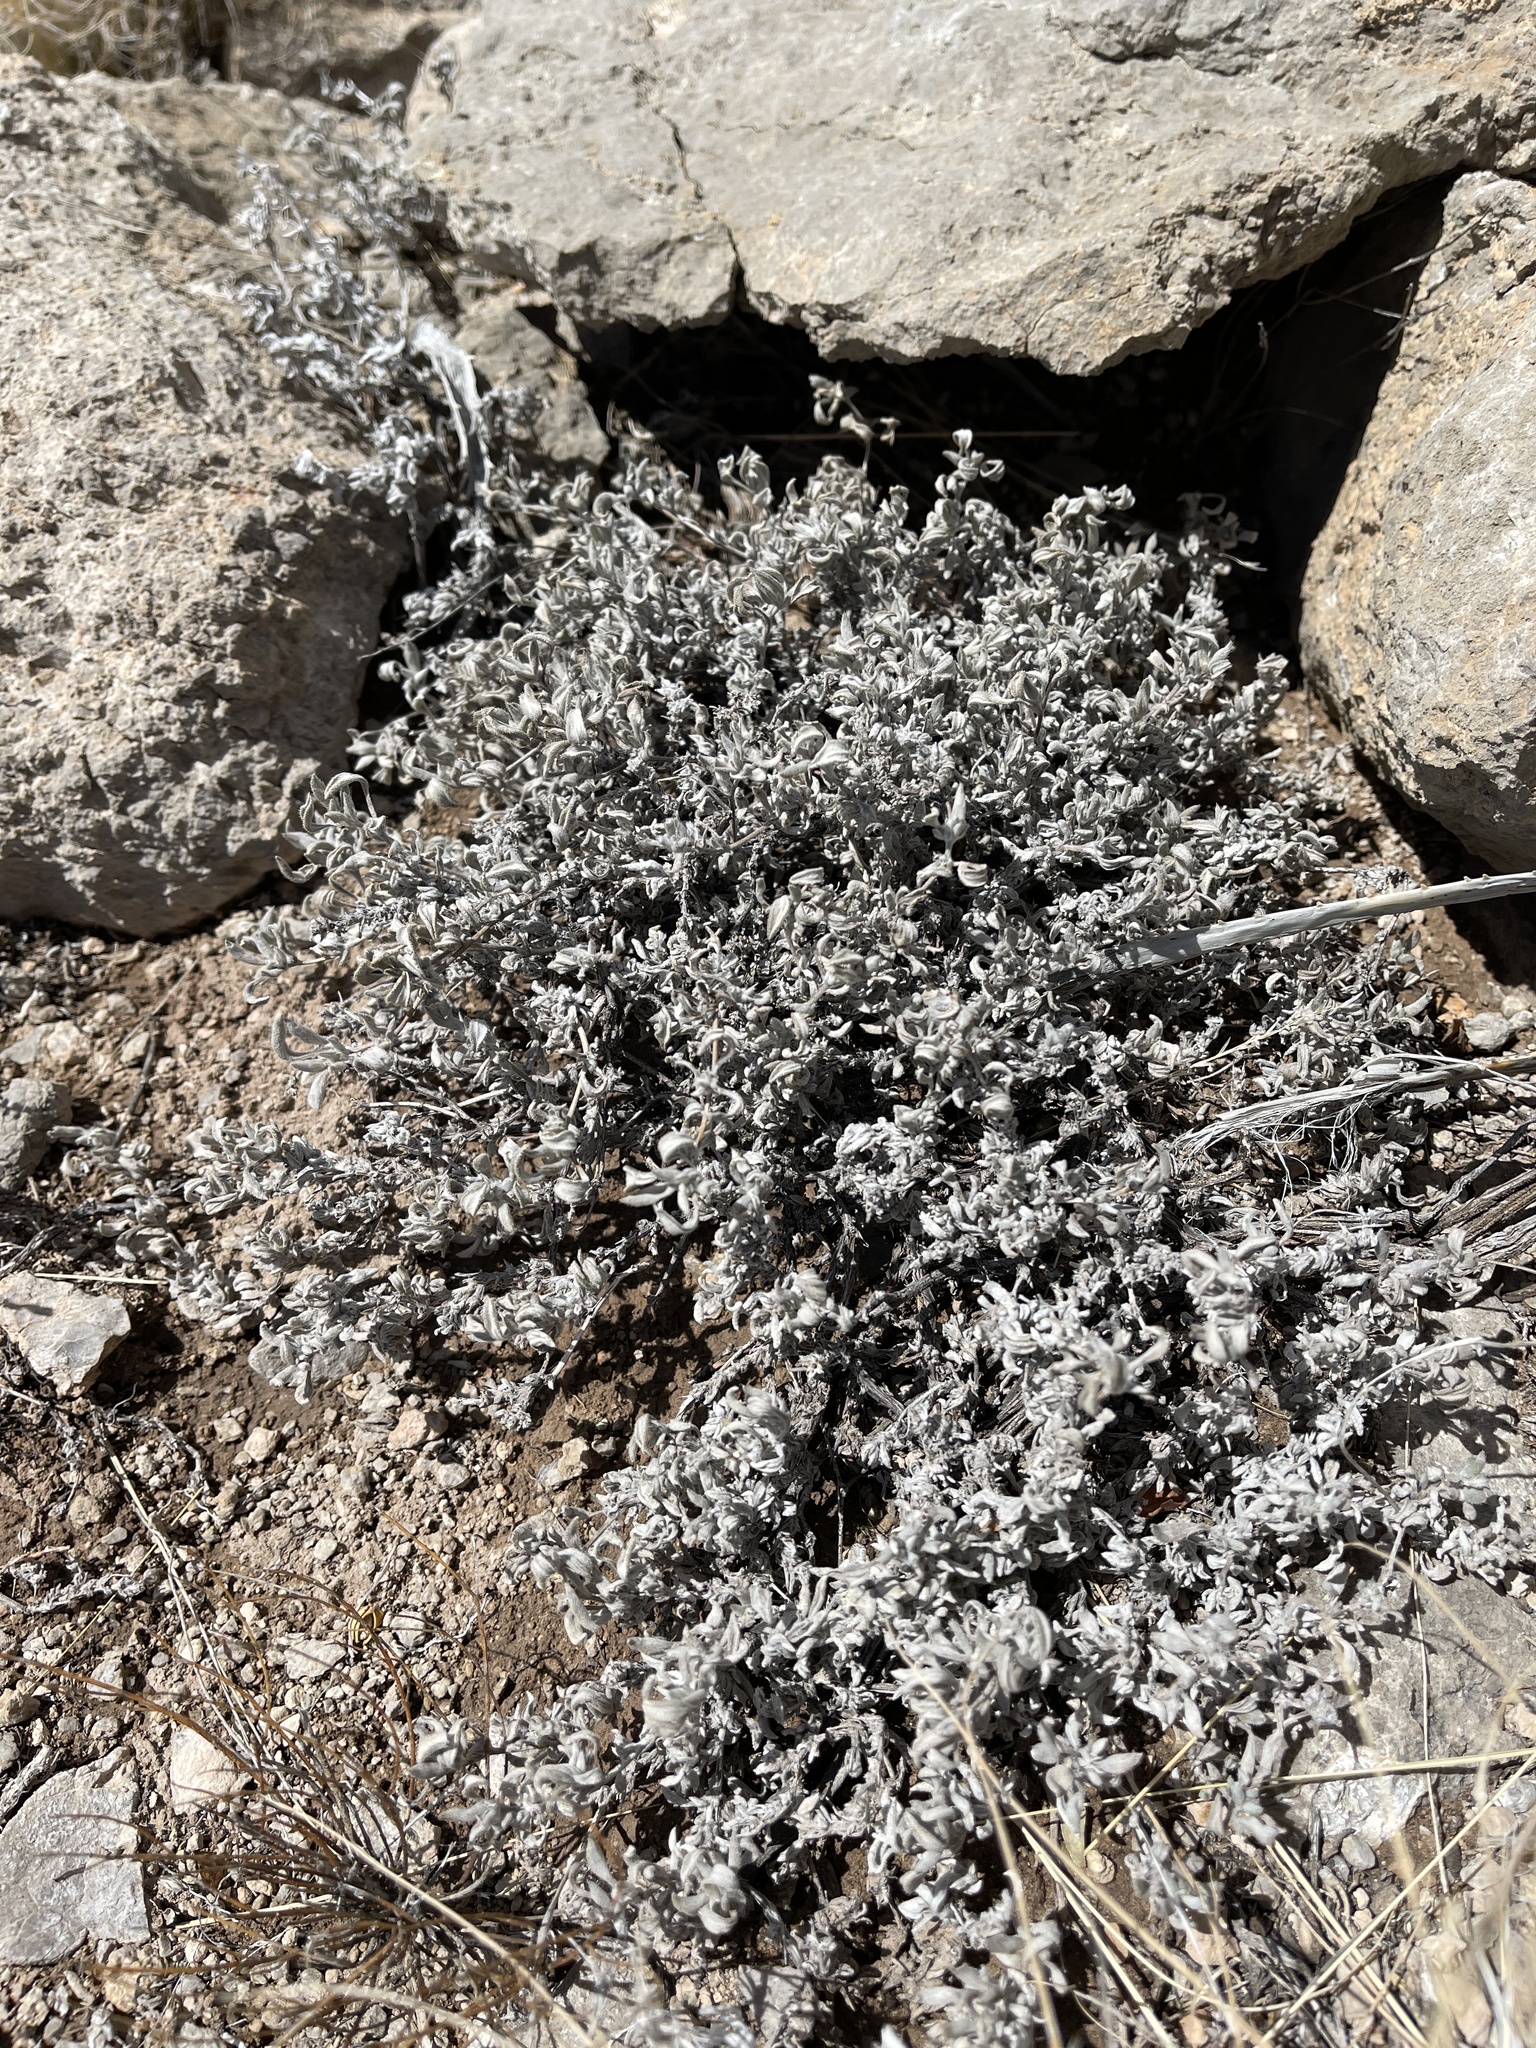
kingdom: Plantae
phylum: Tracheophyta
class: Magnoliopsida
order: Boraginales
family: Ehretiaceae
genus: Tiquilia
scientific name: Tiquilia canescens
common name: Hairy tiquilia
